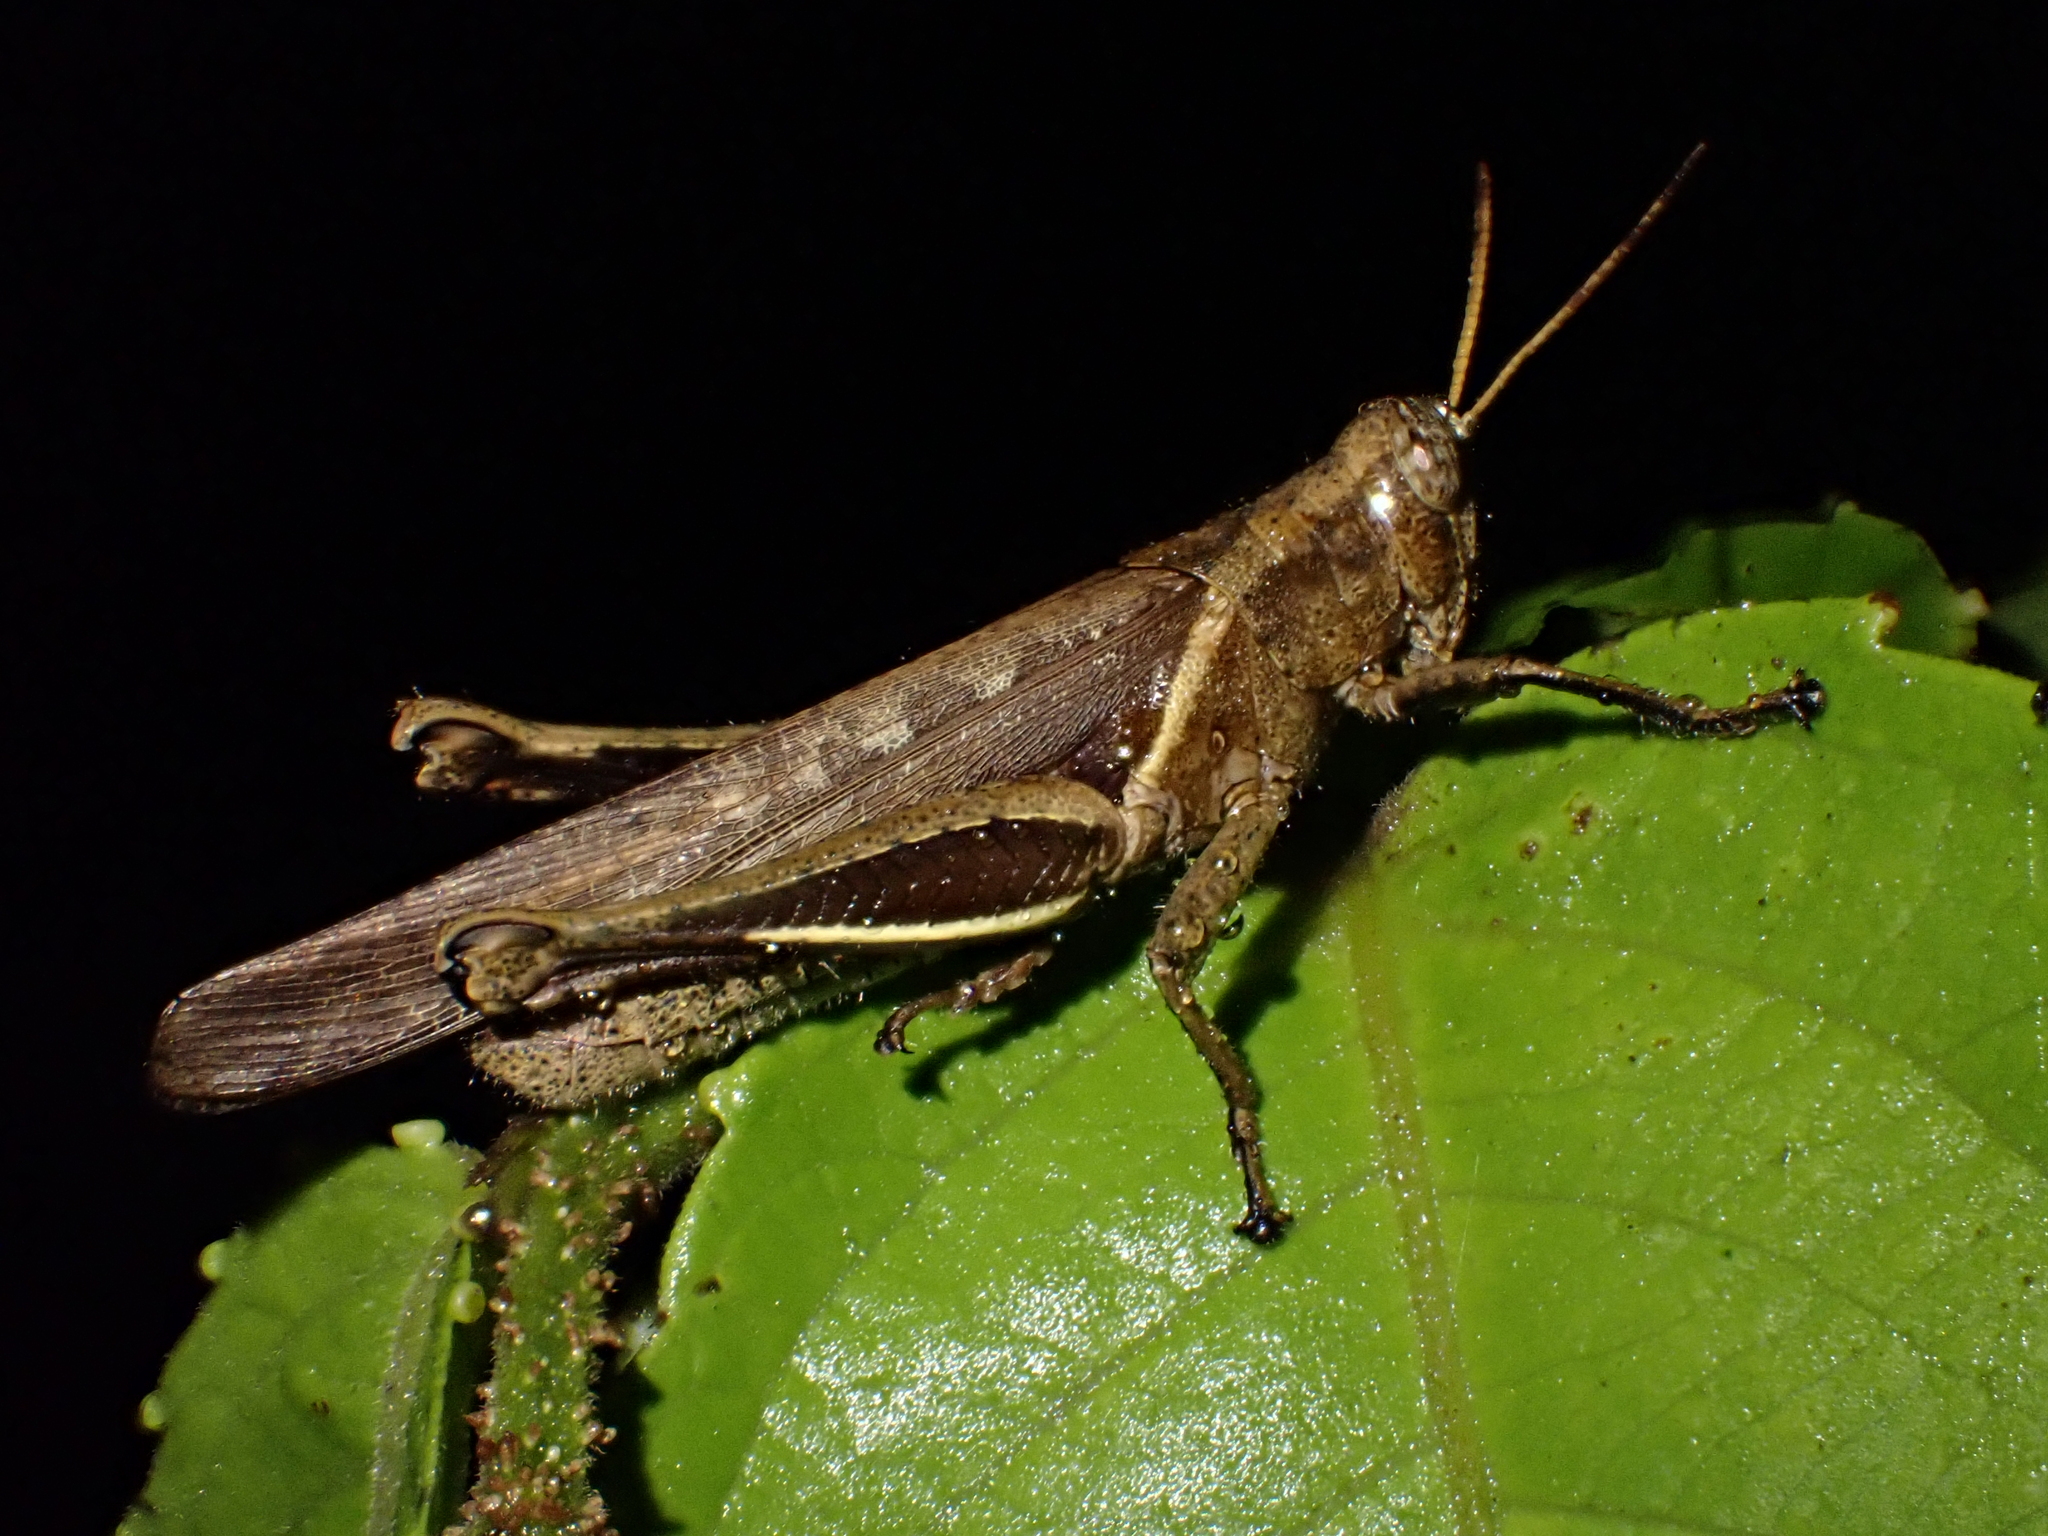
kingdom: Animalia
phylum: Arthropoda
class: Insecta
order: Orthoptera
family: Acrididae
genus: Abracris
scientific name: Abracris flavolineata
